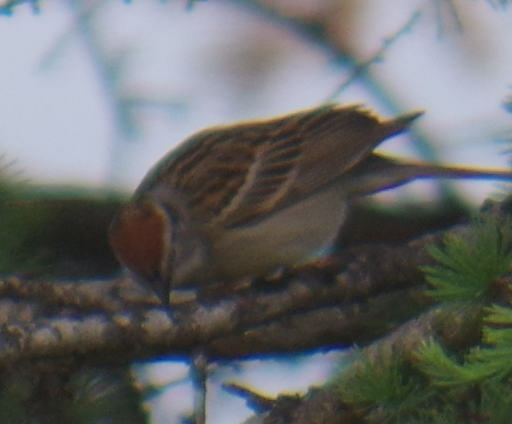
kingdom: Animalia
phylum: Chordata
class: Aves
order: Passeriformes
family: Passerellidae
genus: Spizella
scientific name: Spizella passerina
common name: Chipping sparrow
